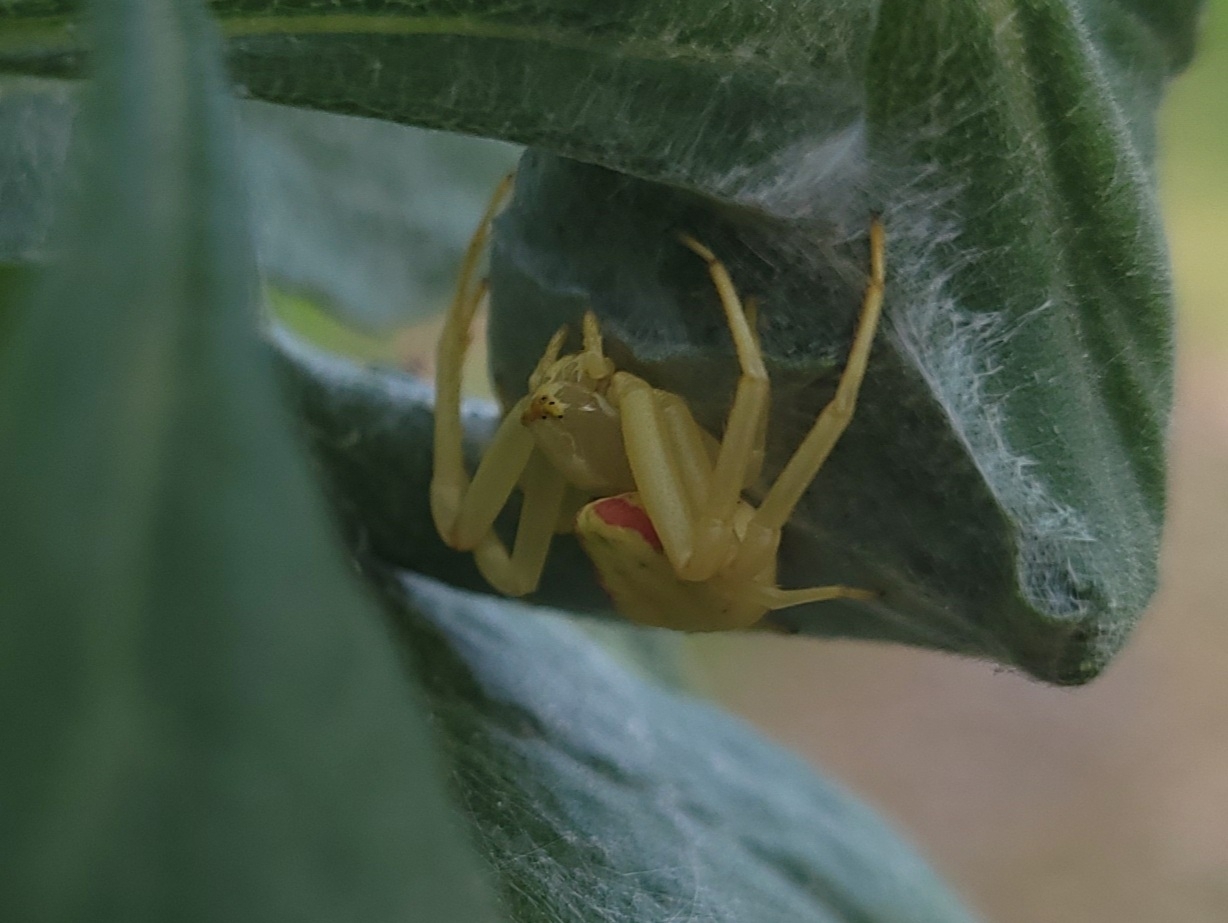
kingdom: Animalia
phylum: Arthropoda
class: Arachnida
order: Araneae
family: Thomisidae
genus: Misumena
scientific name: Misumena vatia
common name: Goldenrod crab spider
